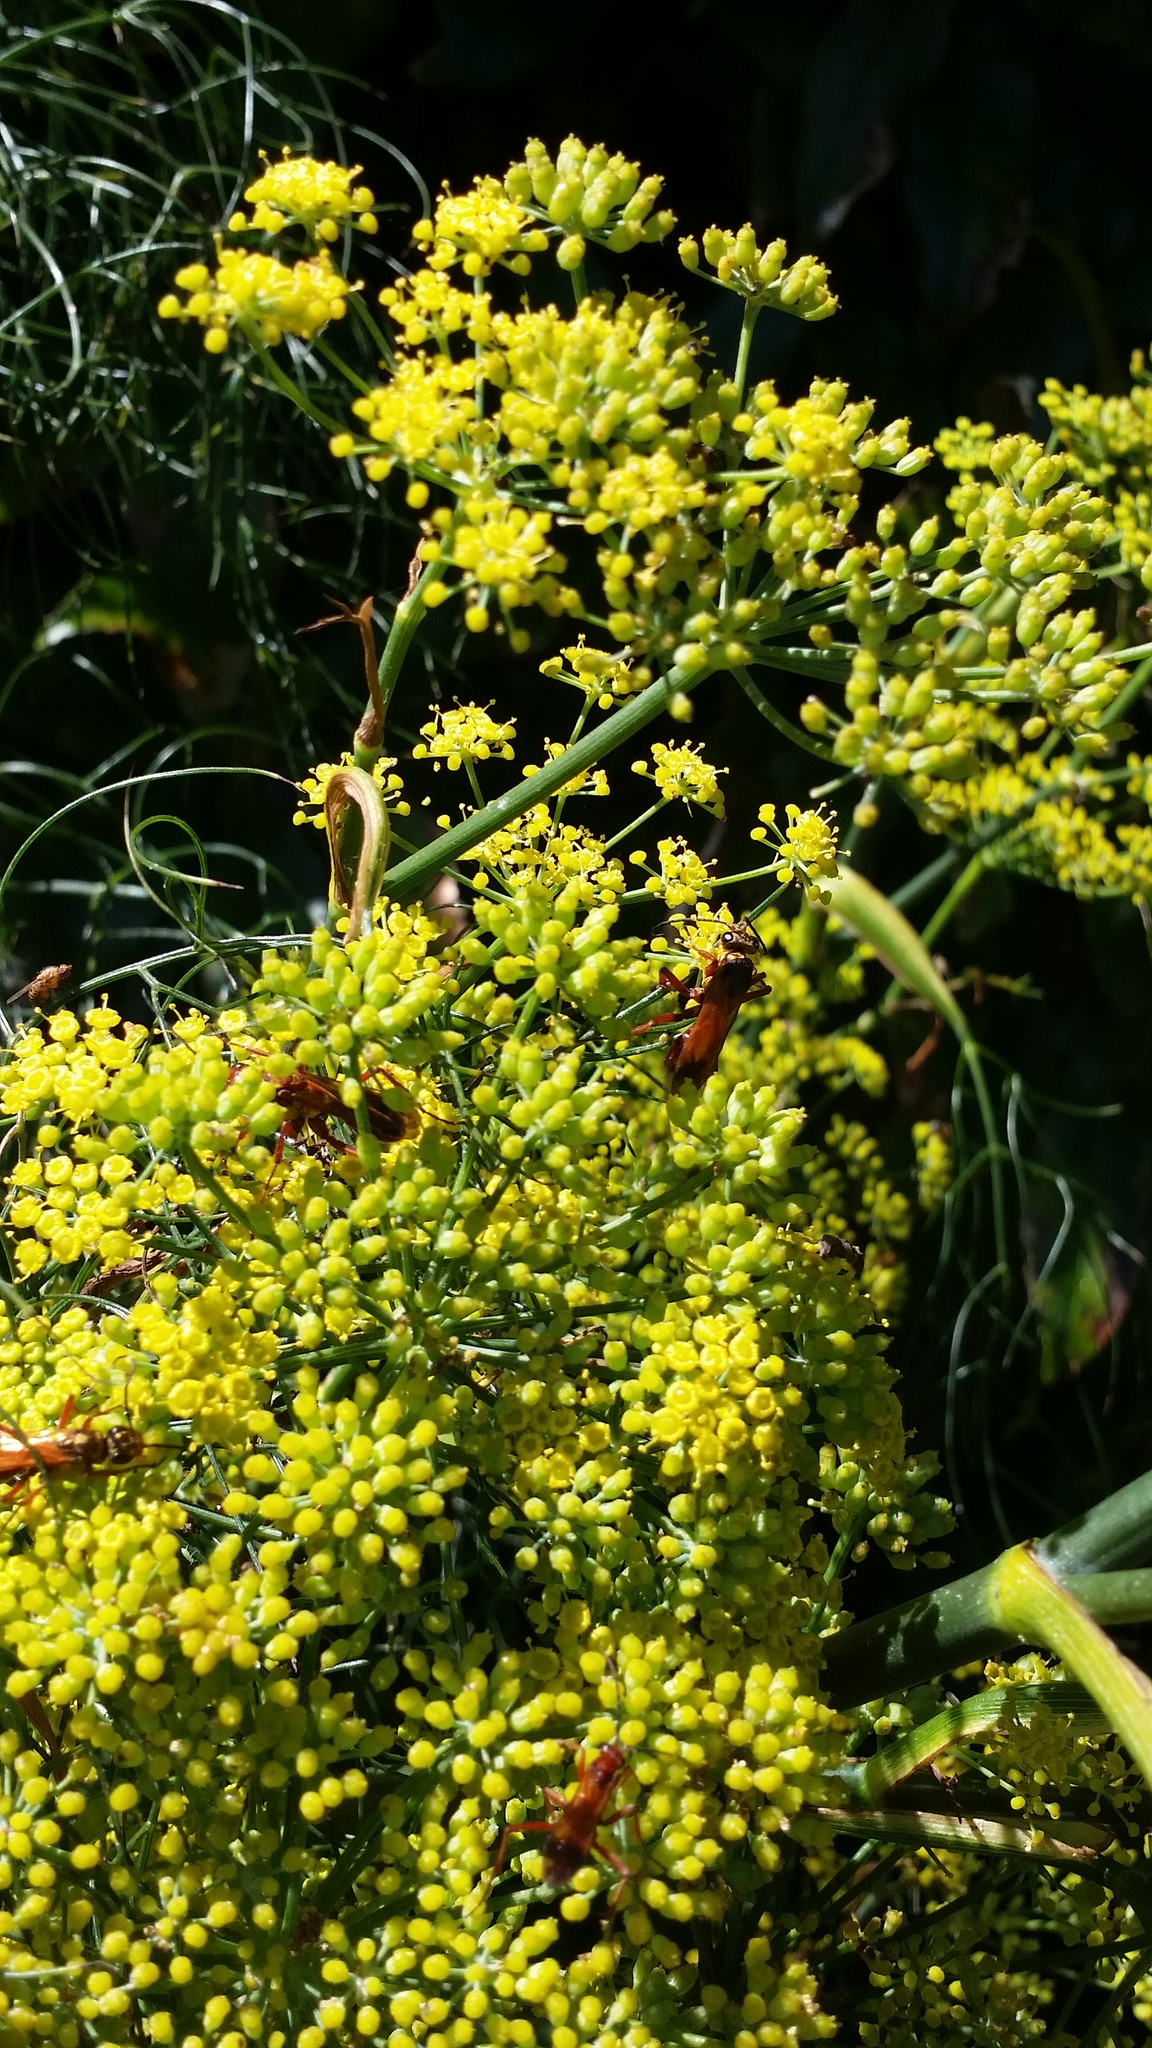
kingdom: Plantae
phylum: Tracheophyta
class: Magnoliopsida
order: Apiales
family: Apiaceae
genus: Foeniculum
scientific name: Foeniculum vulgare
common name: Fennel
